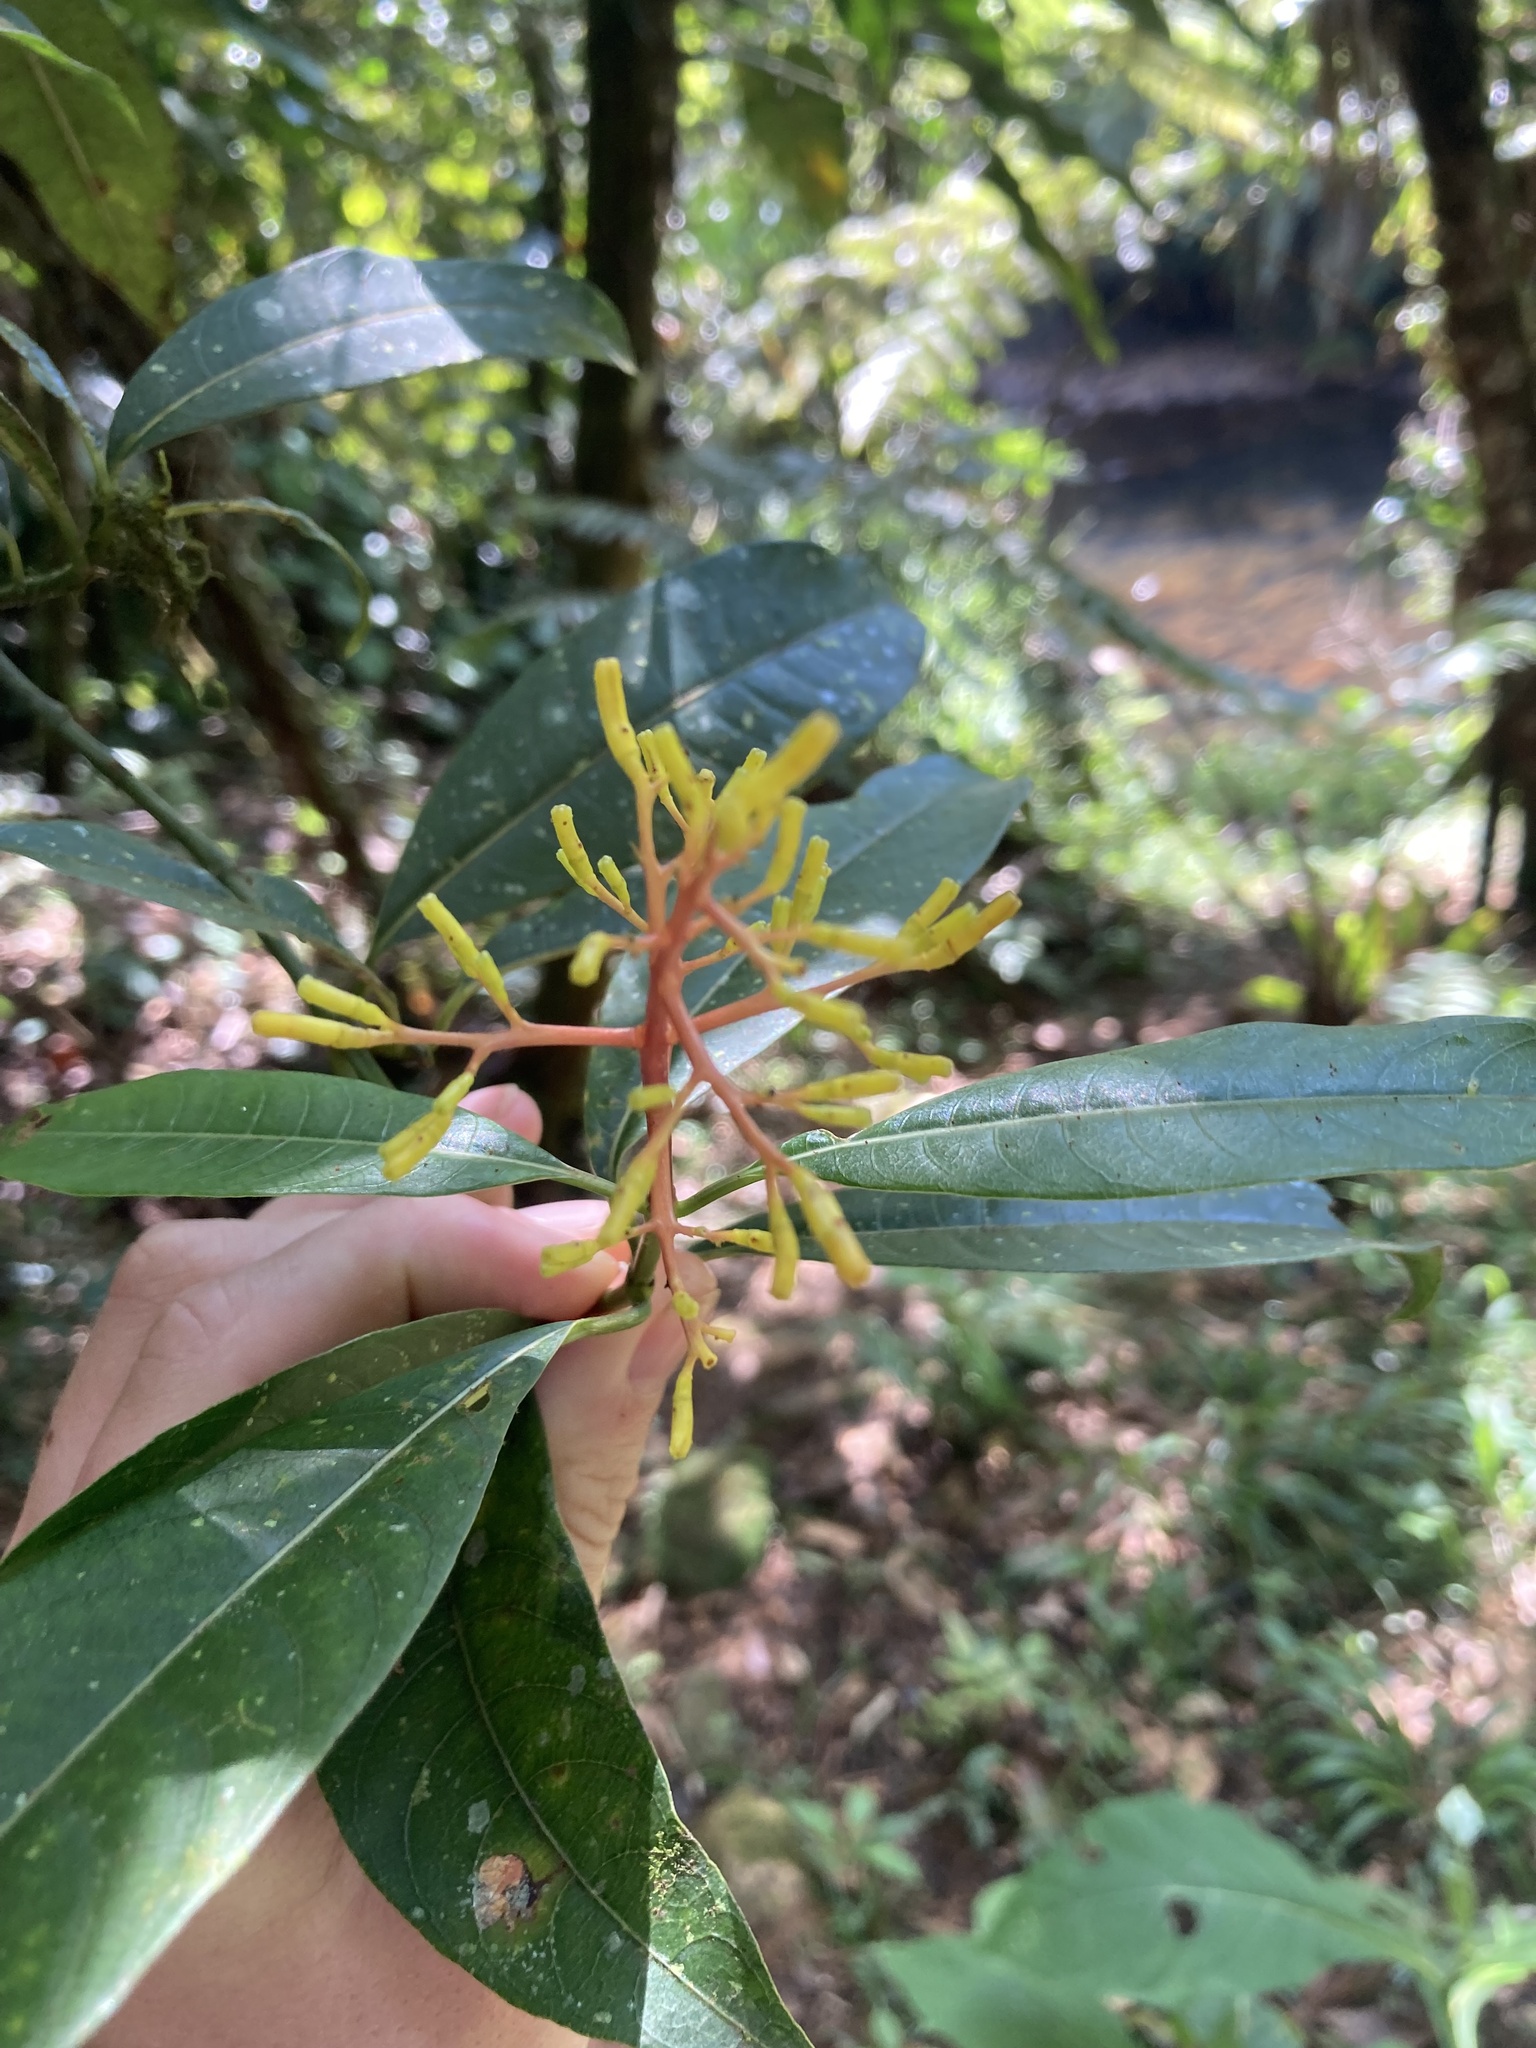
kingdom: Plantae
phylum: Tracheophyta
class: Magnoliopsida
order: Gentianales
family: Rubiaceae
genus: Palicourea
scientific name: Palicourea padifolia
